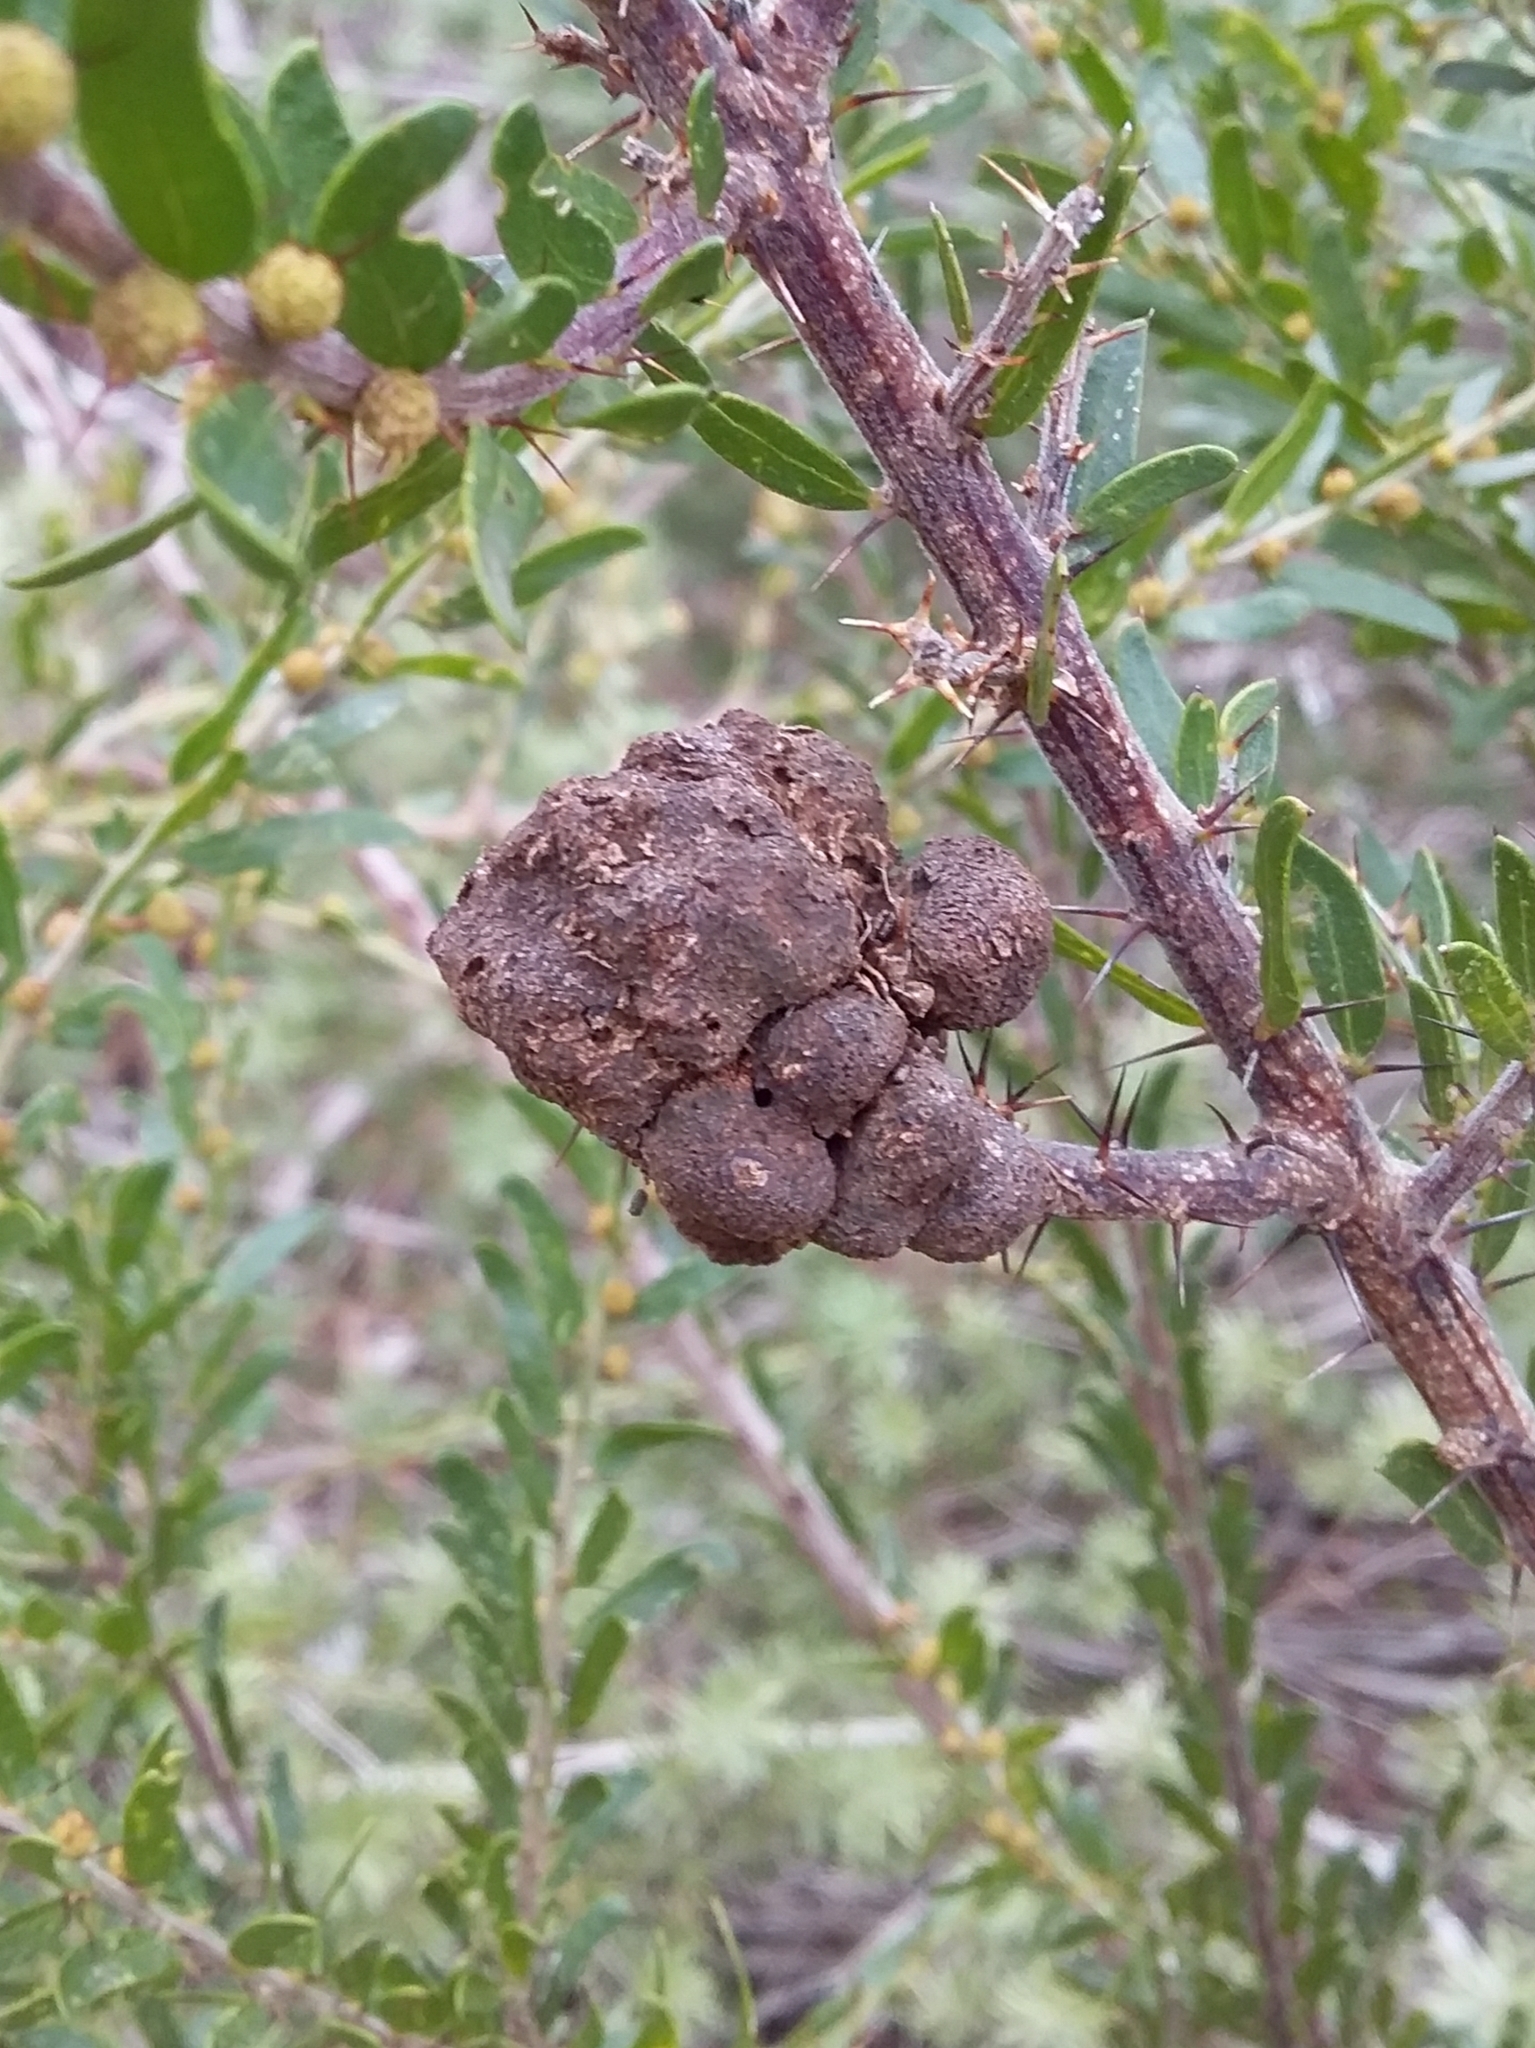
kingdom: Fungi
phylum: Basidiomycota
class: Pucciniomycetes
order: Pucciniales
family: Uromycladiaceae
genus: Uromycladium
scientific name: Uromycladium paradoxae
